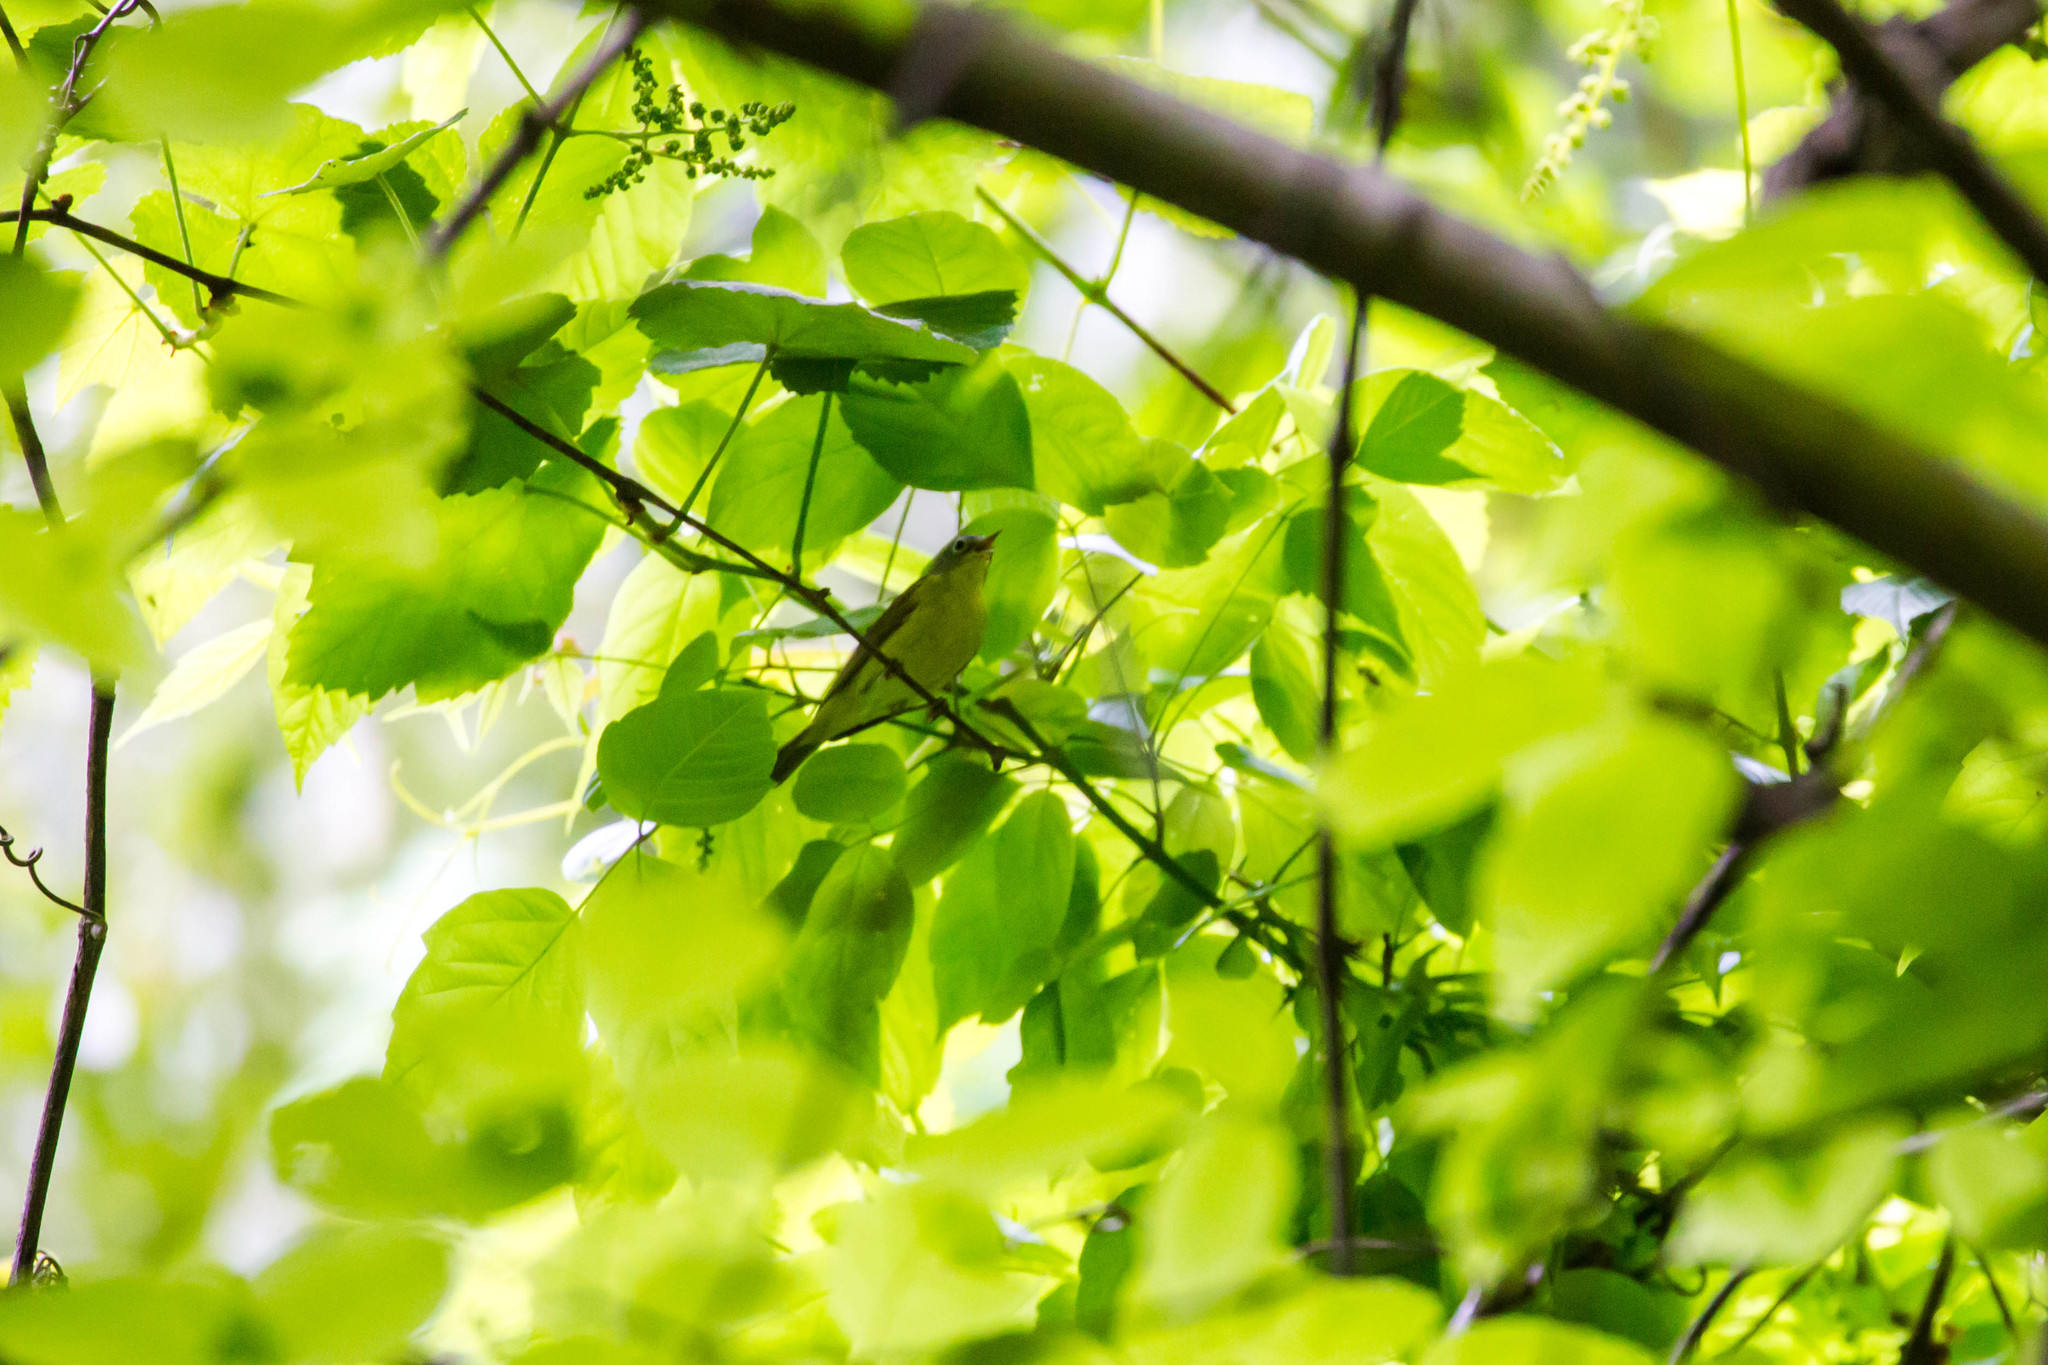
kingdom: Animalia
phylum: Chordata
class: Aves
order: Passeriformes
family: Parulidae
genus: Leiothlypis
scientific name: Leiothlypis ruficapilla
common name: Nashville warbler
